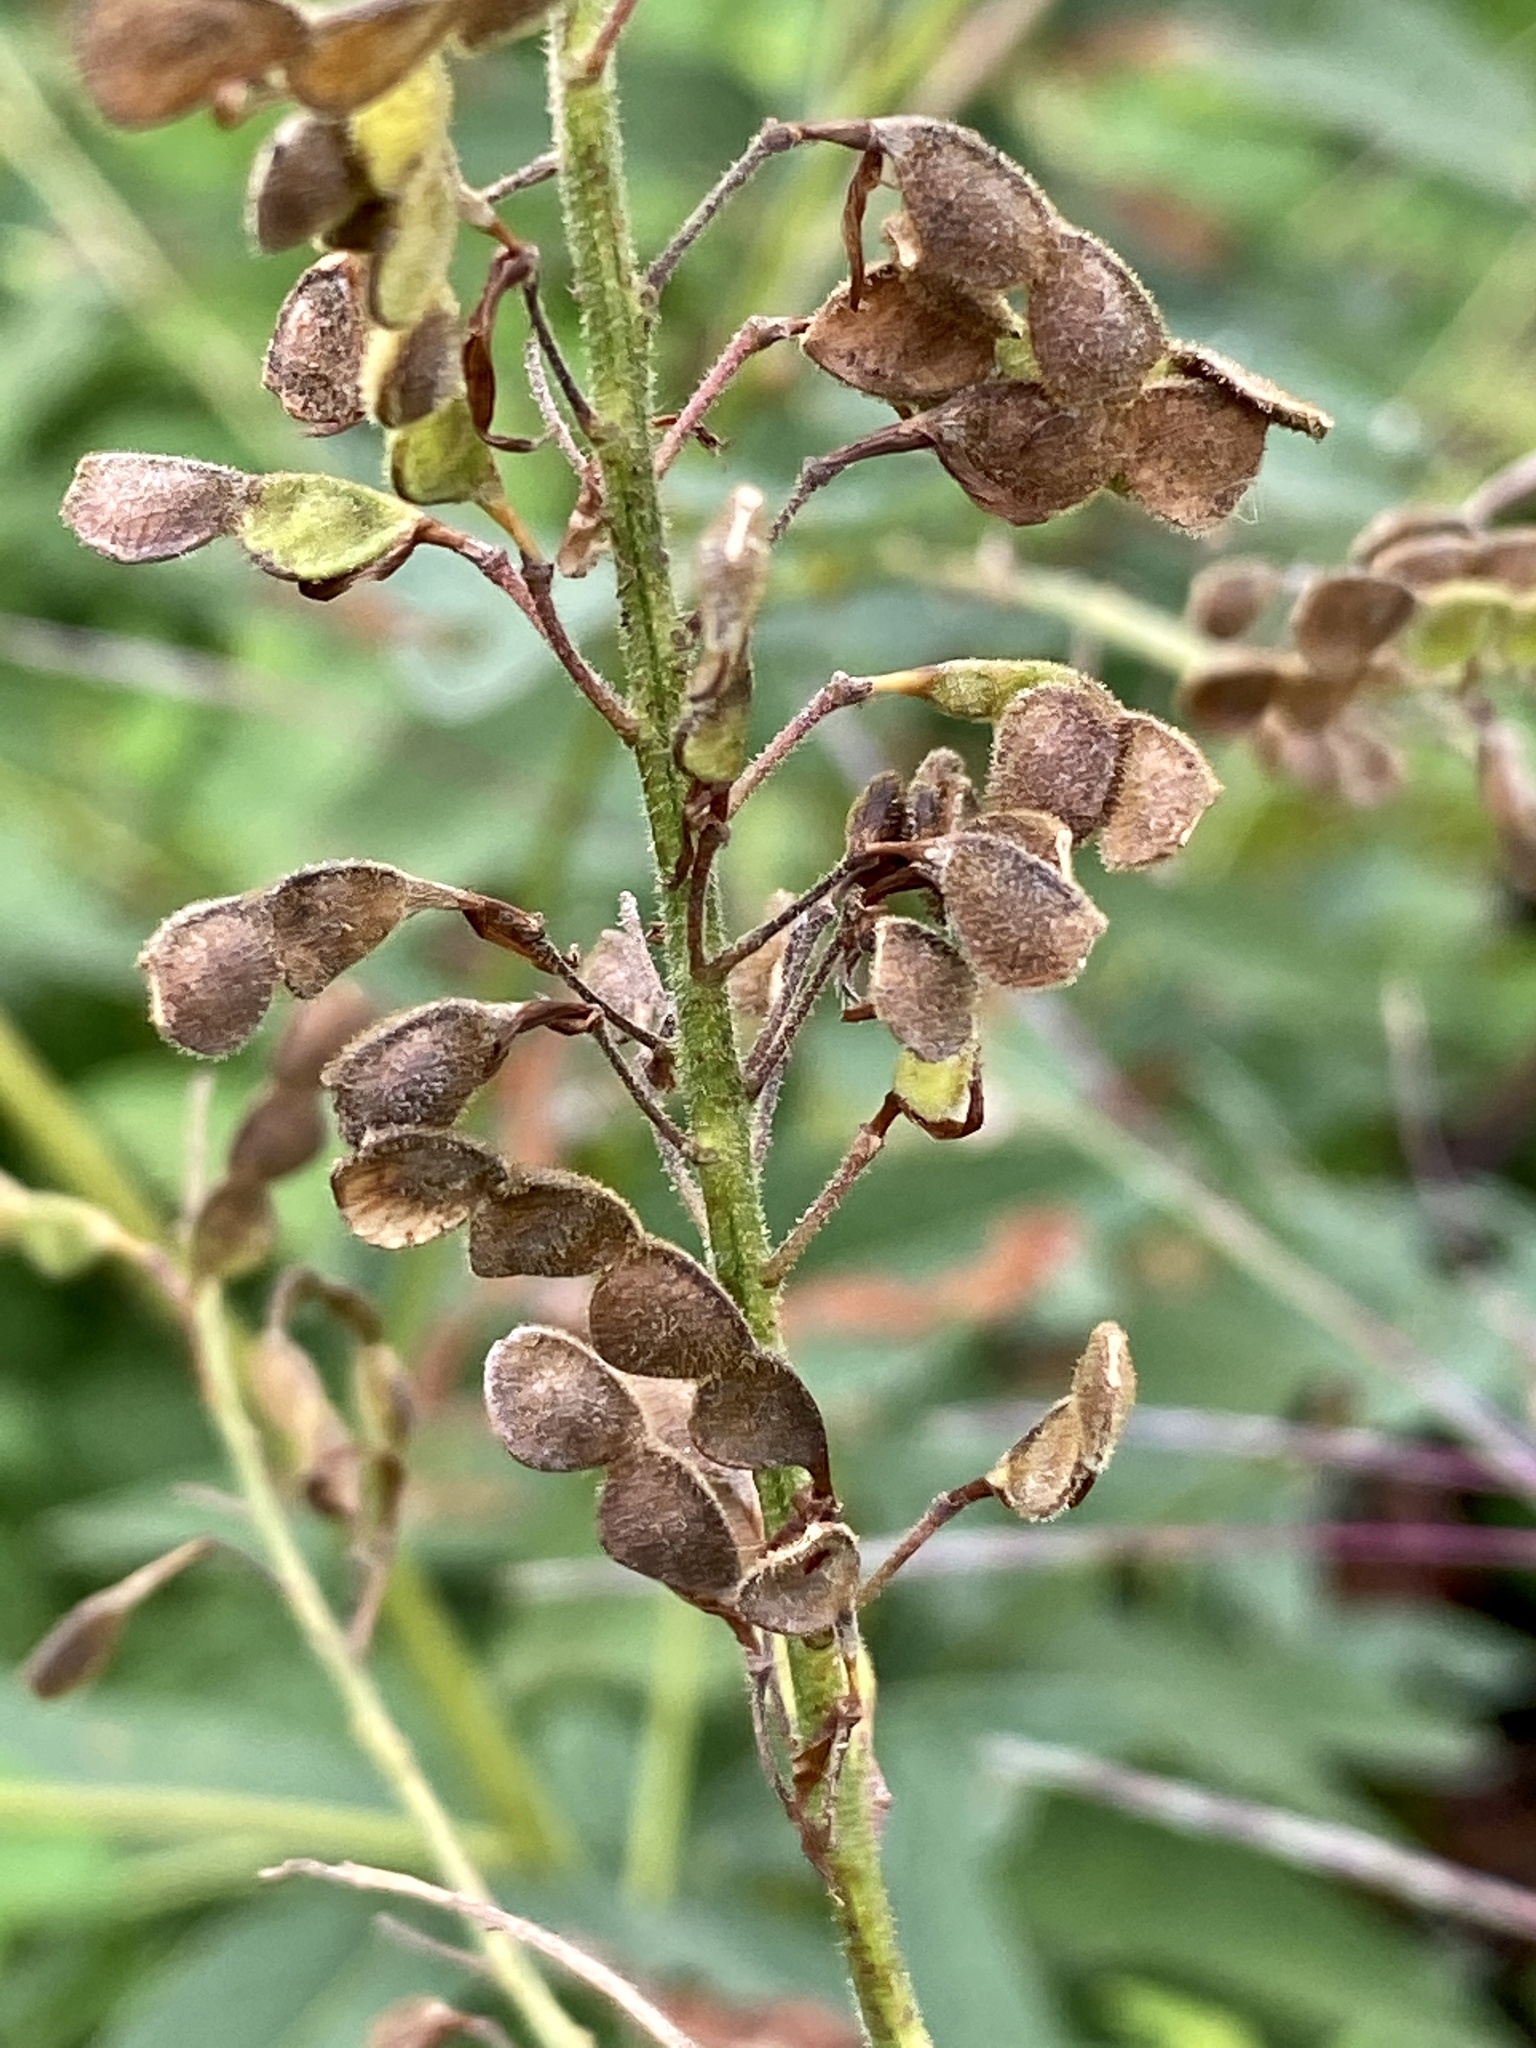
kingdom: Plantae
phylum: Tracheophyta
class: Magnoliopsida
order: Fabales
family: Fabaceae
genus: Desmodium
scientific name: Desmodium canadense
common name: Canada tick-trefoil
